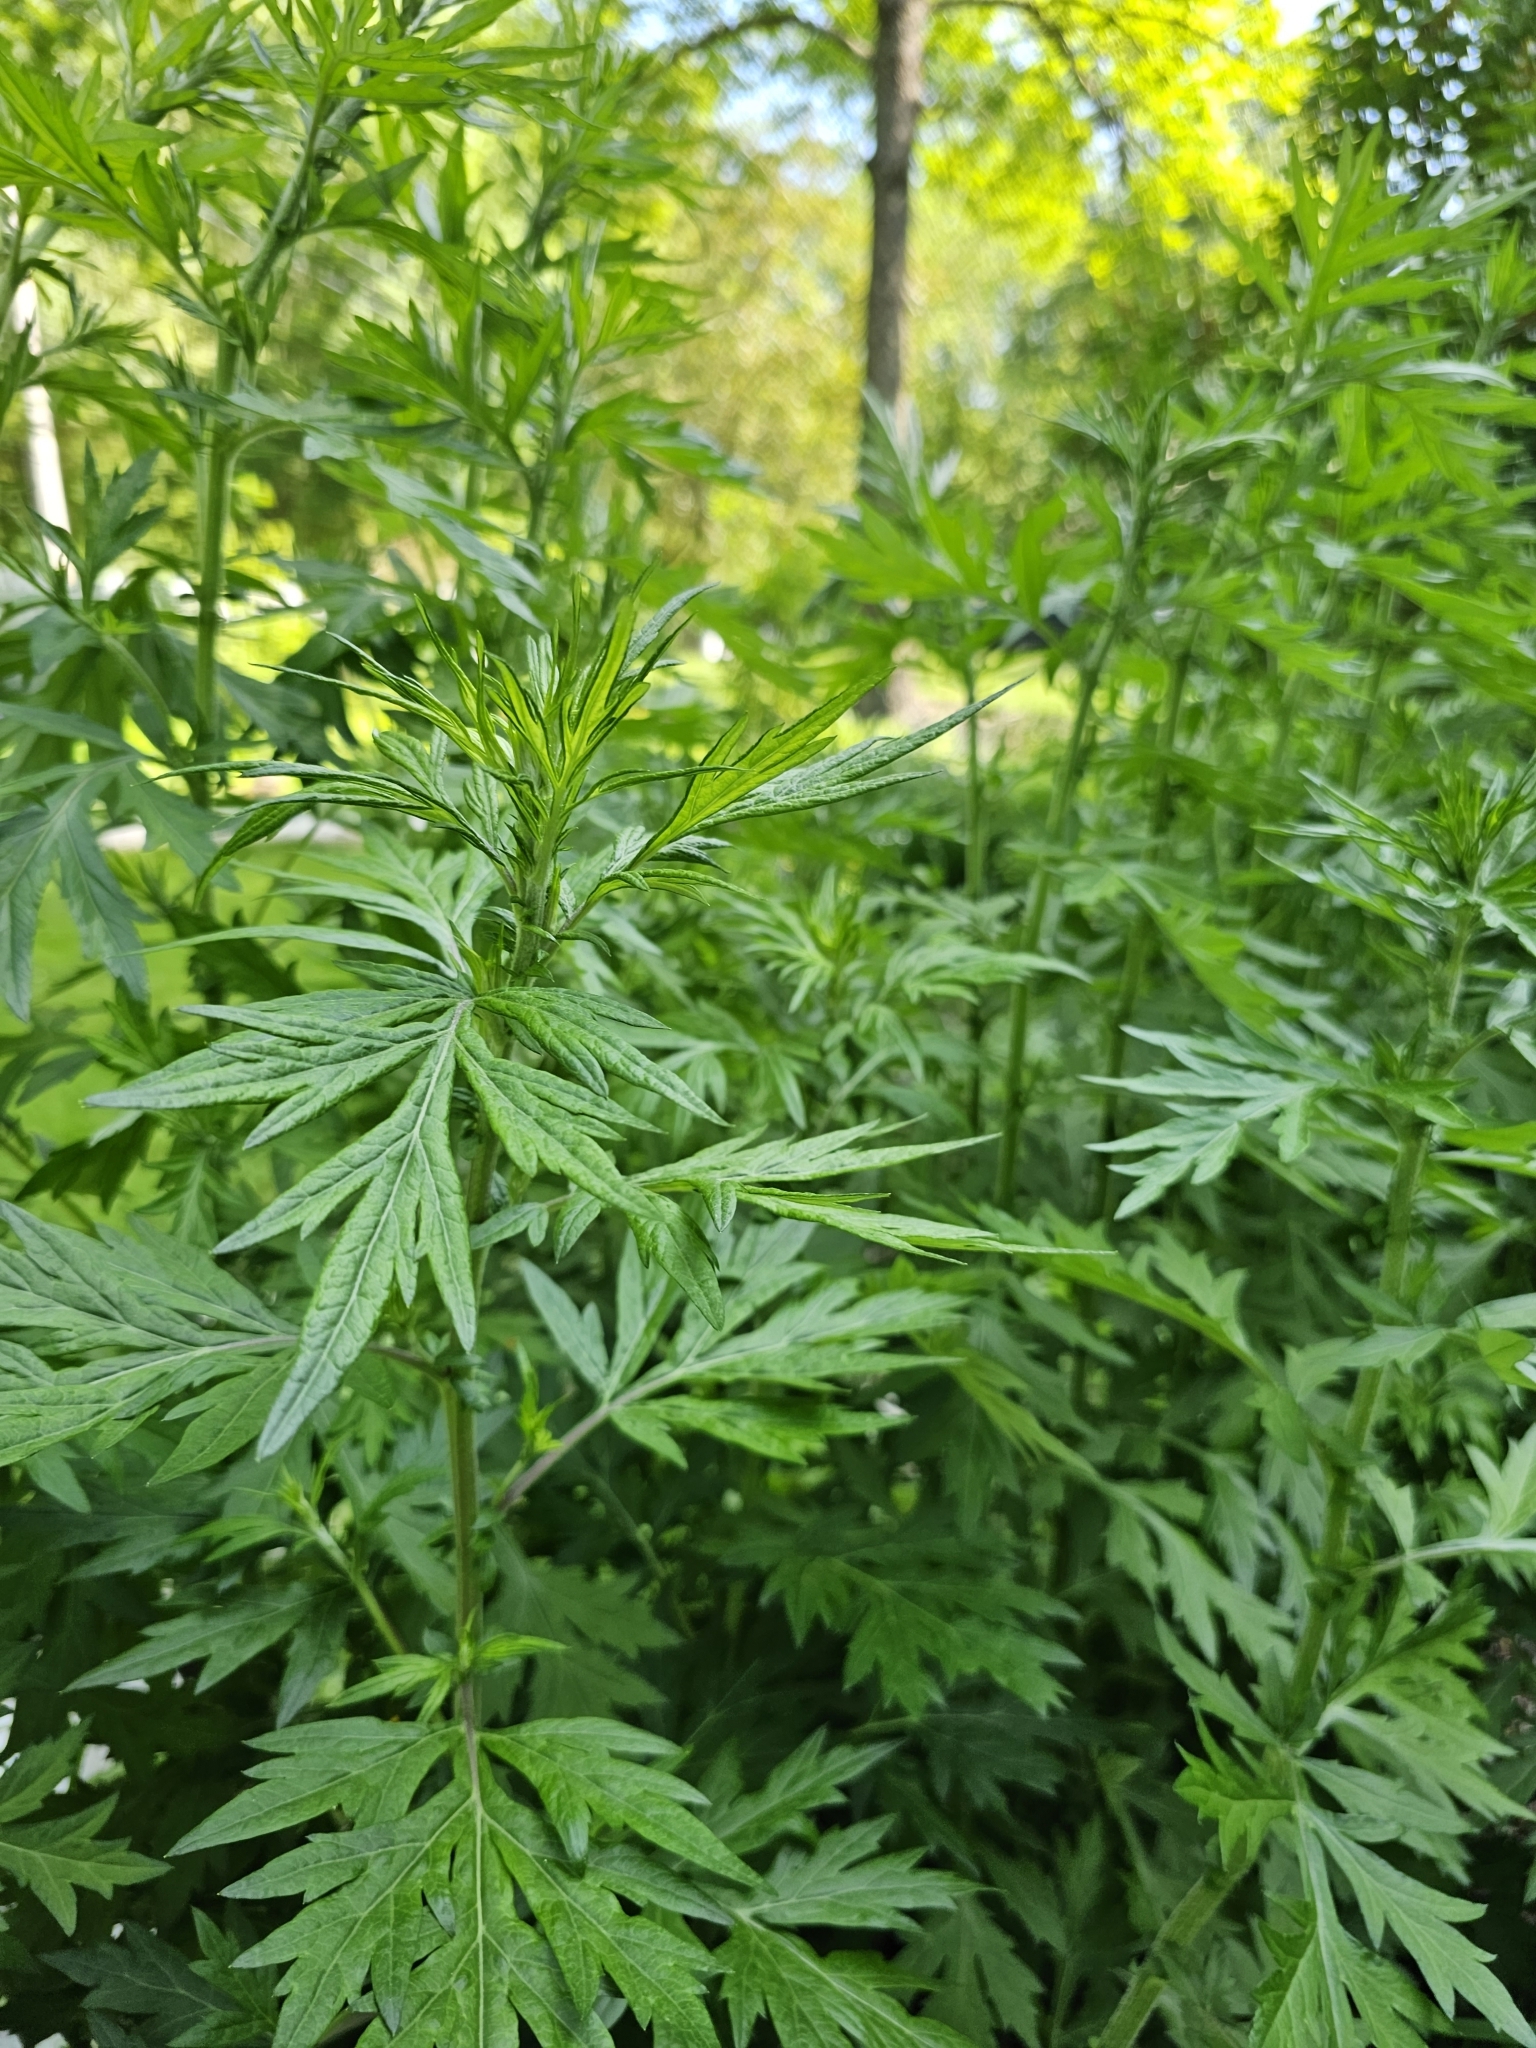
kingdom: Plantae
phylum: Tracheophyta
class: Magnoliopsida
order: Asterales
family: Asteraceae
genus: Artemisia
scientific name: Artemisia vulgaris
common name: Mugwort
